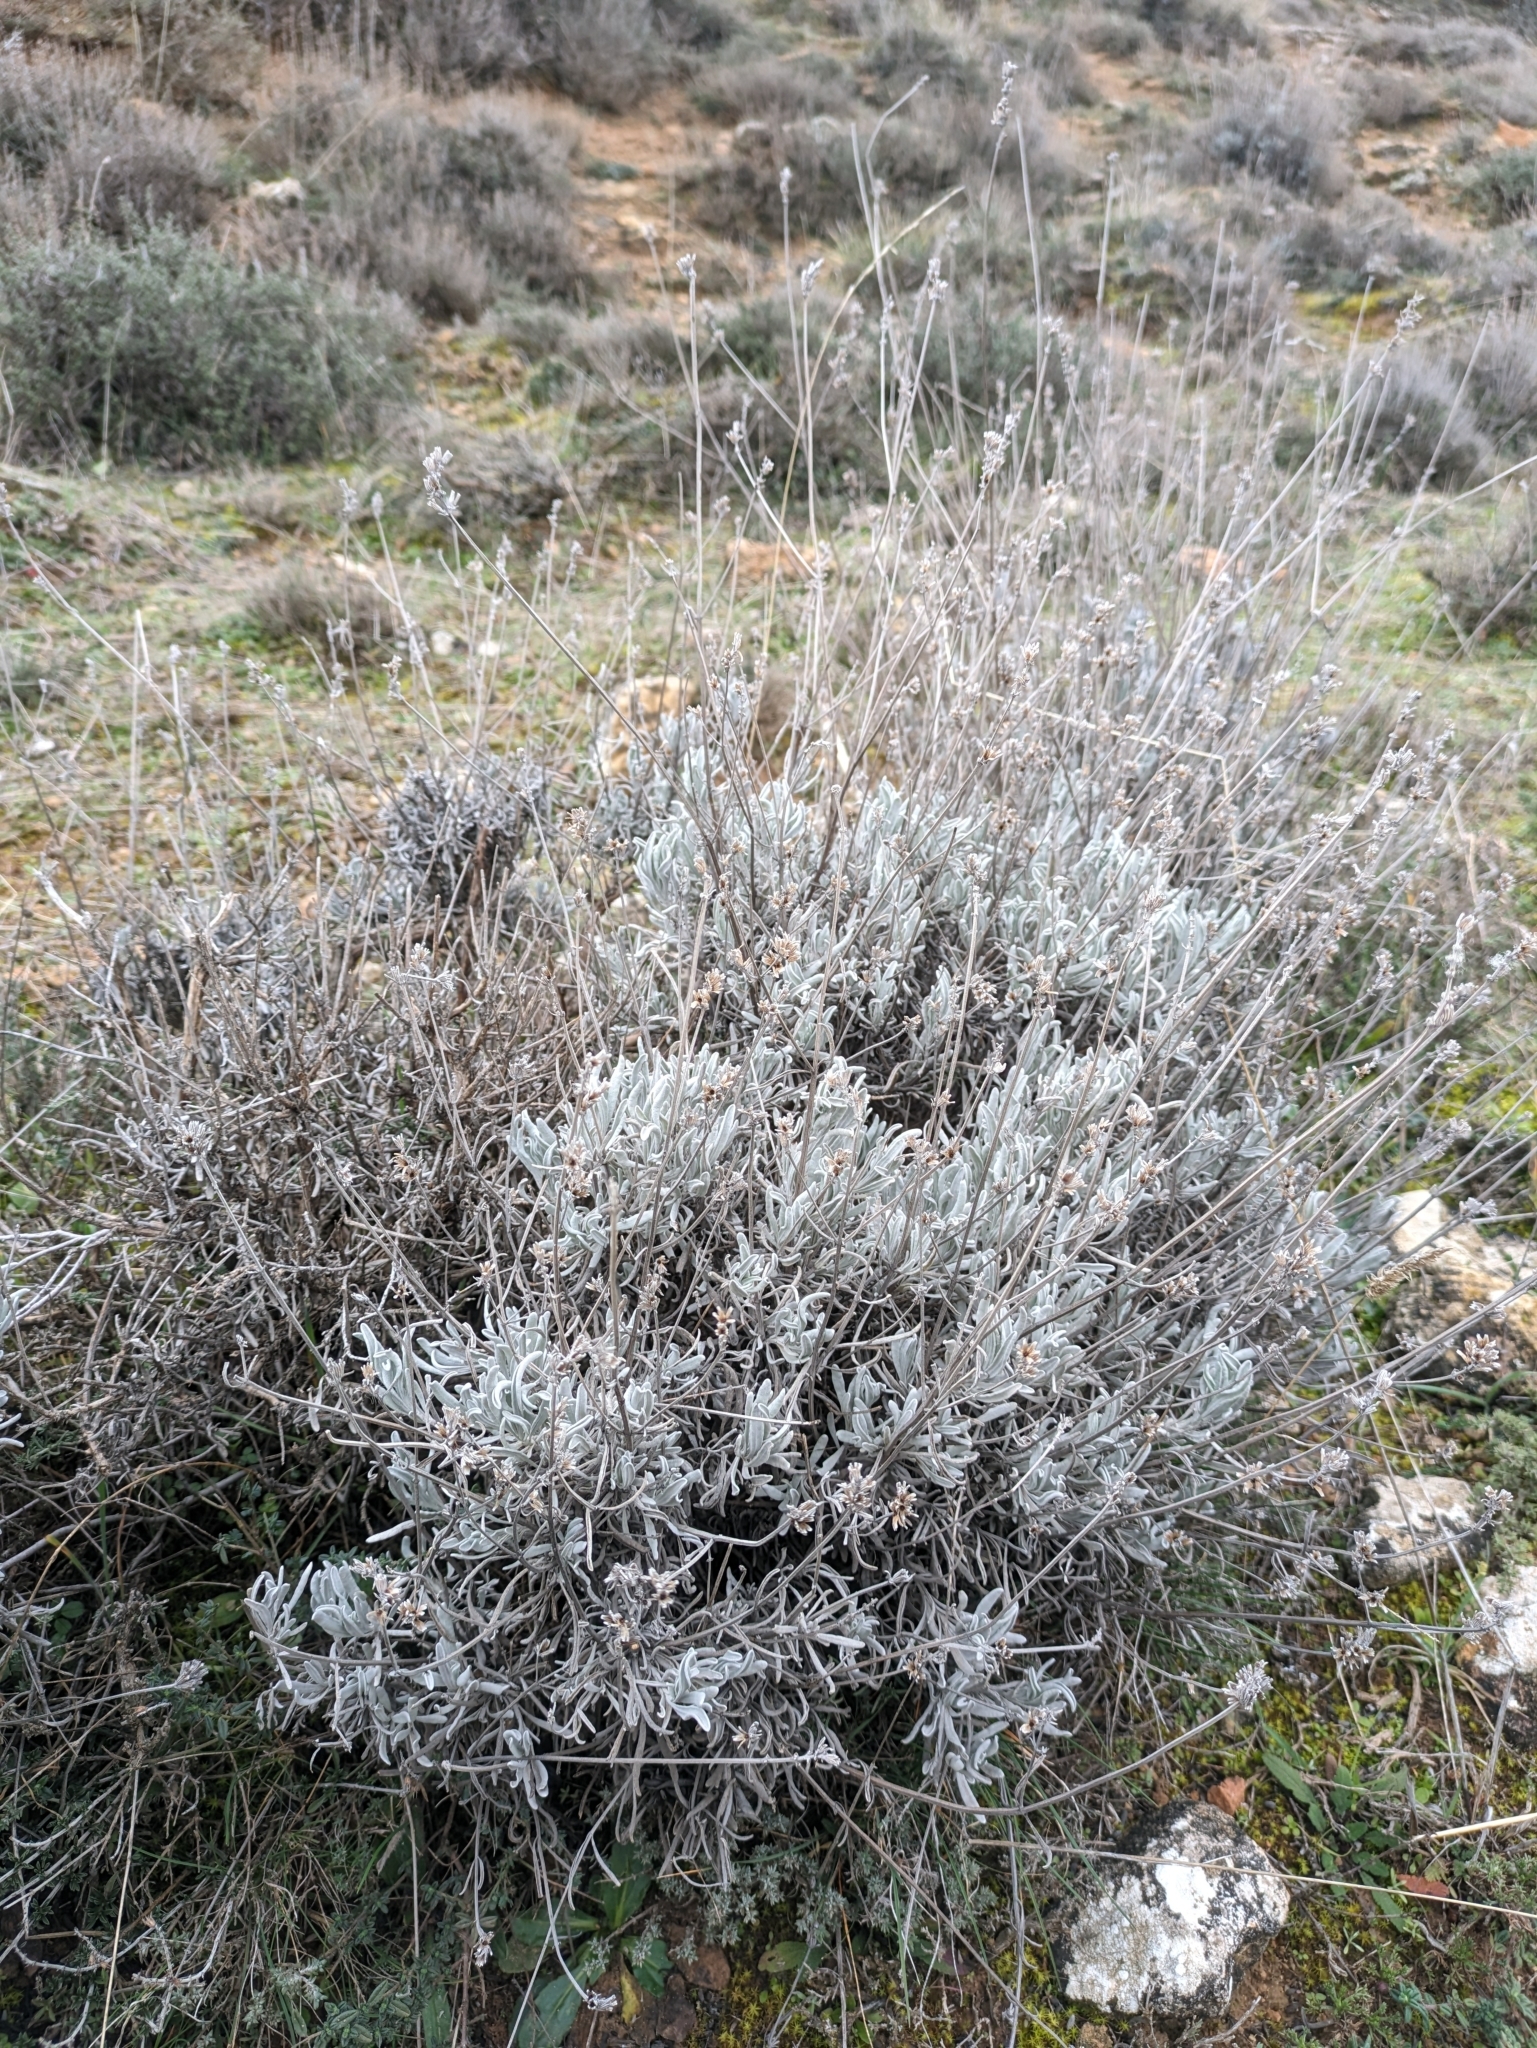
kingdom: Plantae
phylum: Tracheophyta
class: Magnoliopsida
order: Lamiales
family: Lamiaceae
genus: Lavandula
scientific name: Lavandula latifolia
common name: Spike lavendar
